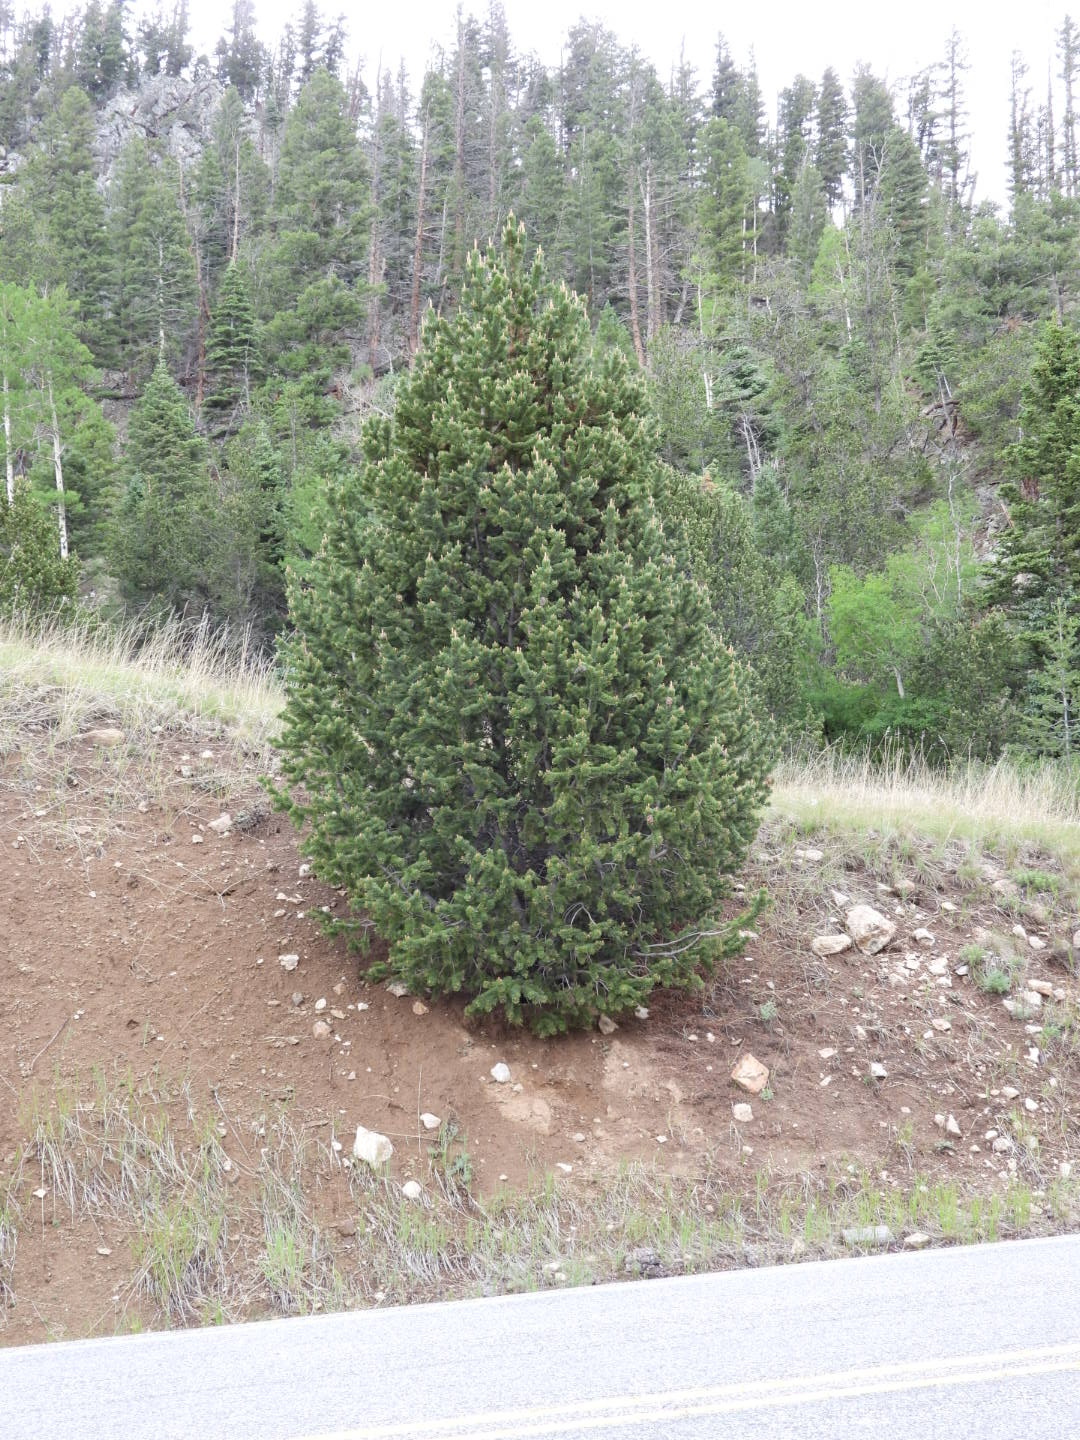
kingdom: Plantae
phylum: Tracheophyta
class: Pinopsida
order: Pinales
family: Pinaceae
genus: Pinus
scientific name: Pinus aristata
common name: Colorado bristlecone pine
